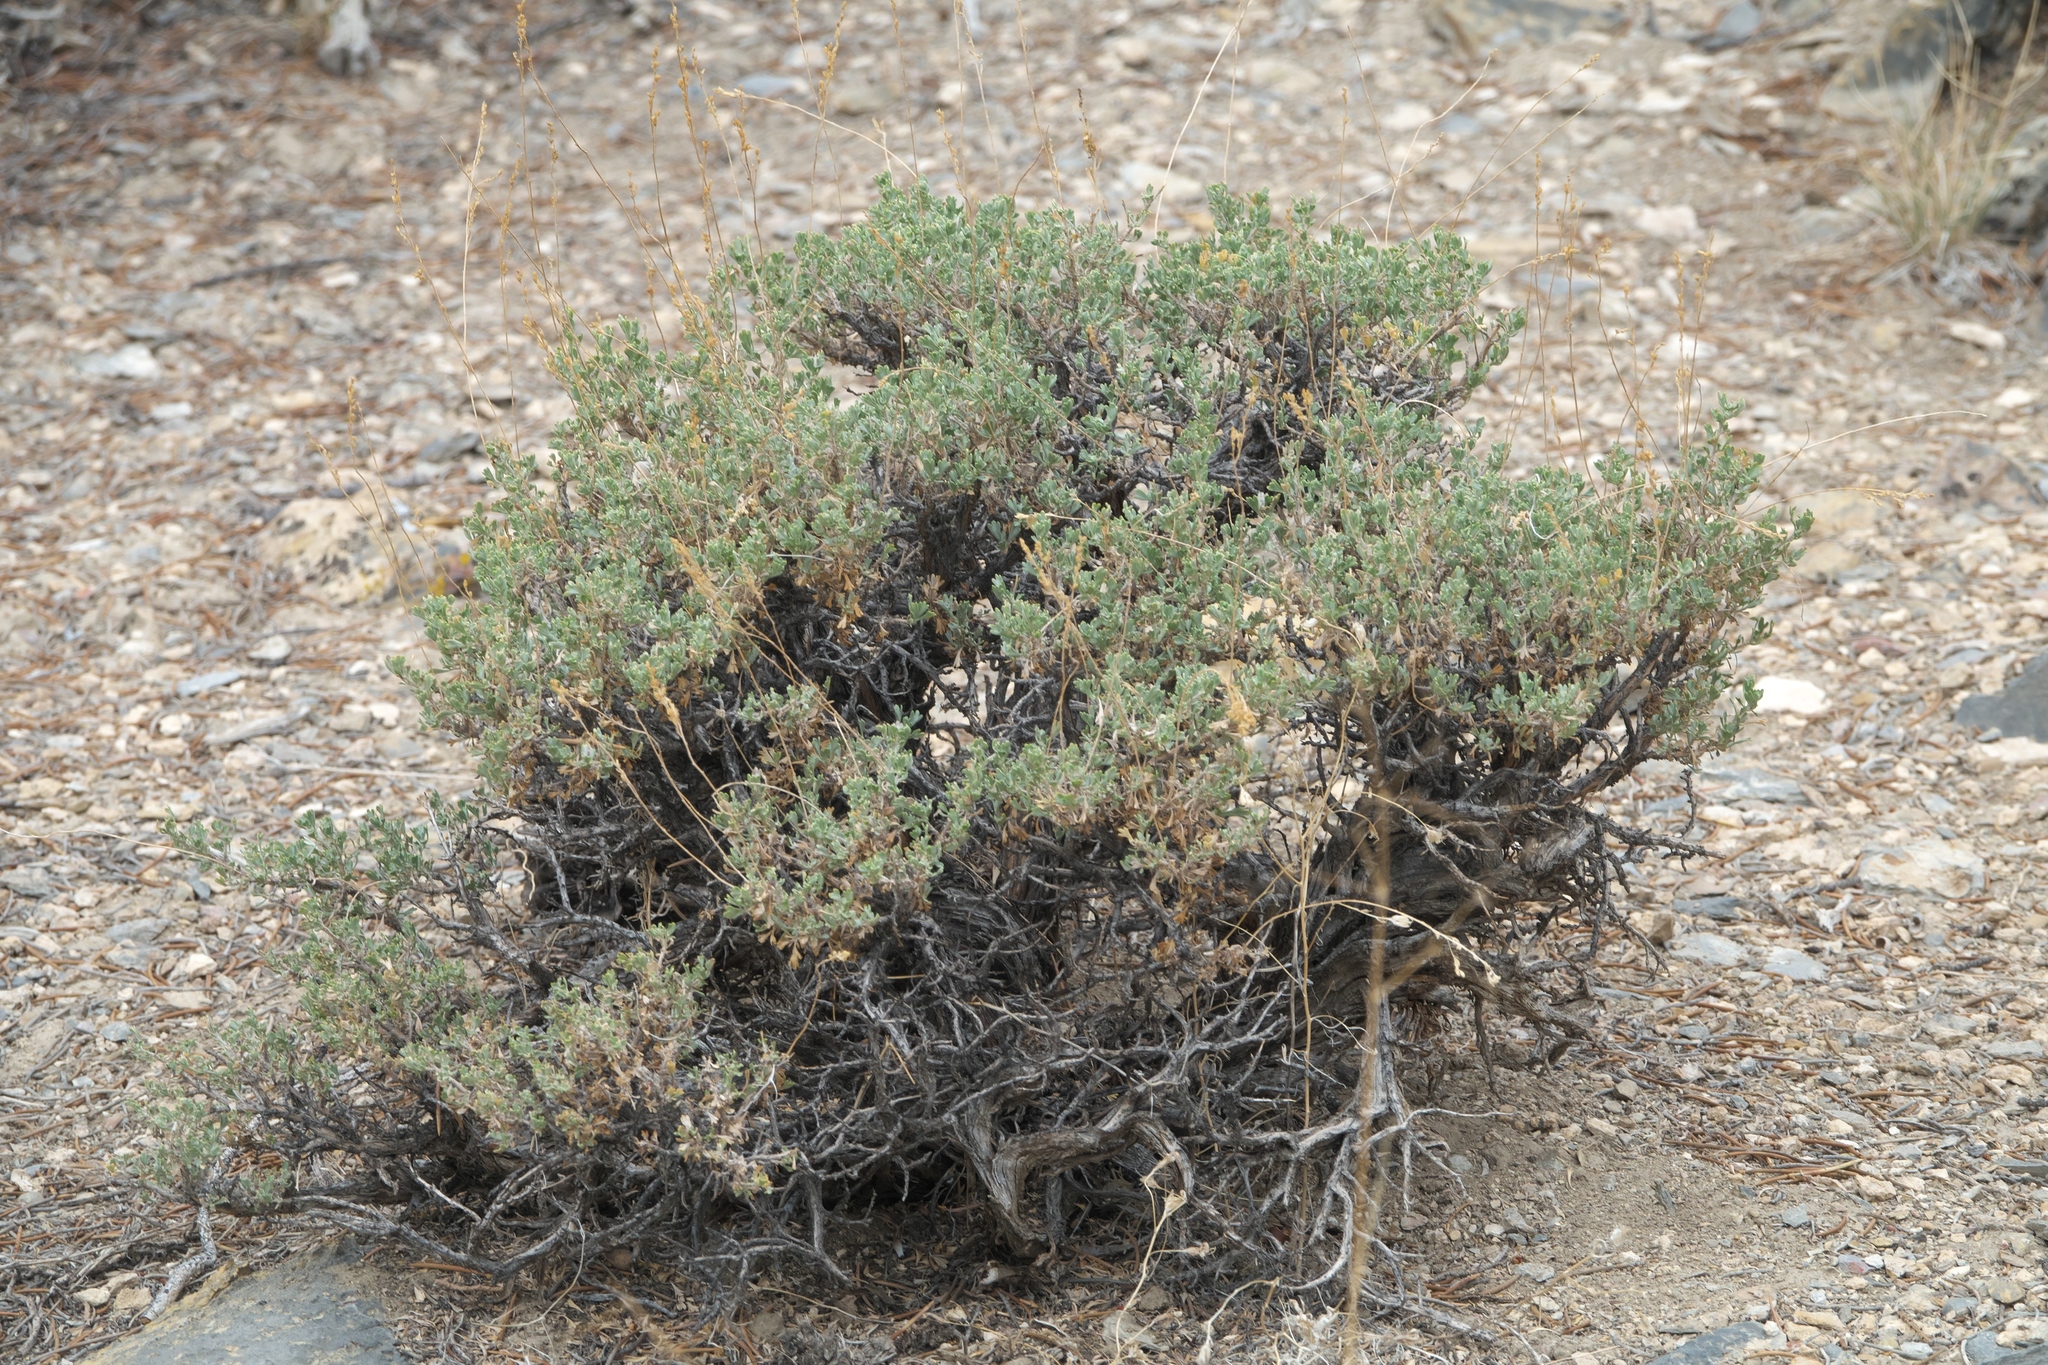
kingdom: Plantae
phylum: Tracheophyta
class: Magnoliopsida
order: Asterales
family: Asteraceae
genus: Artemisia
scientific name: Artemisia nova
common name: Black-sage
